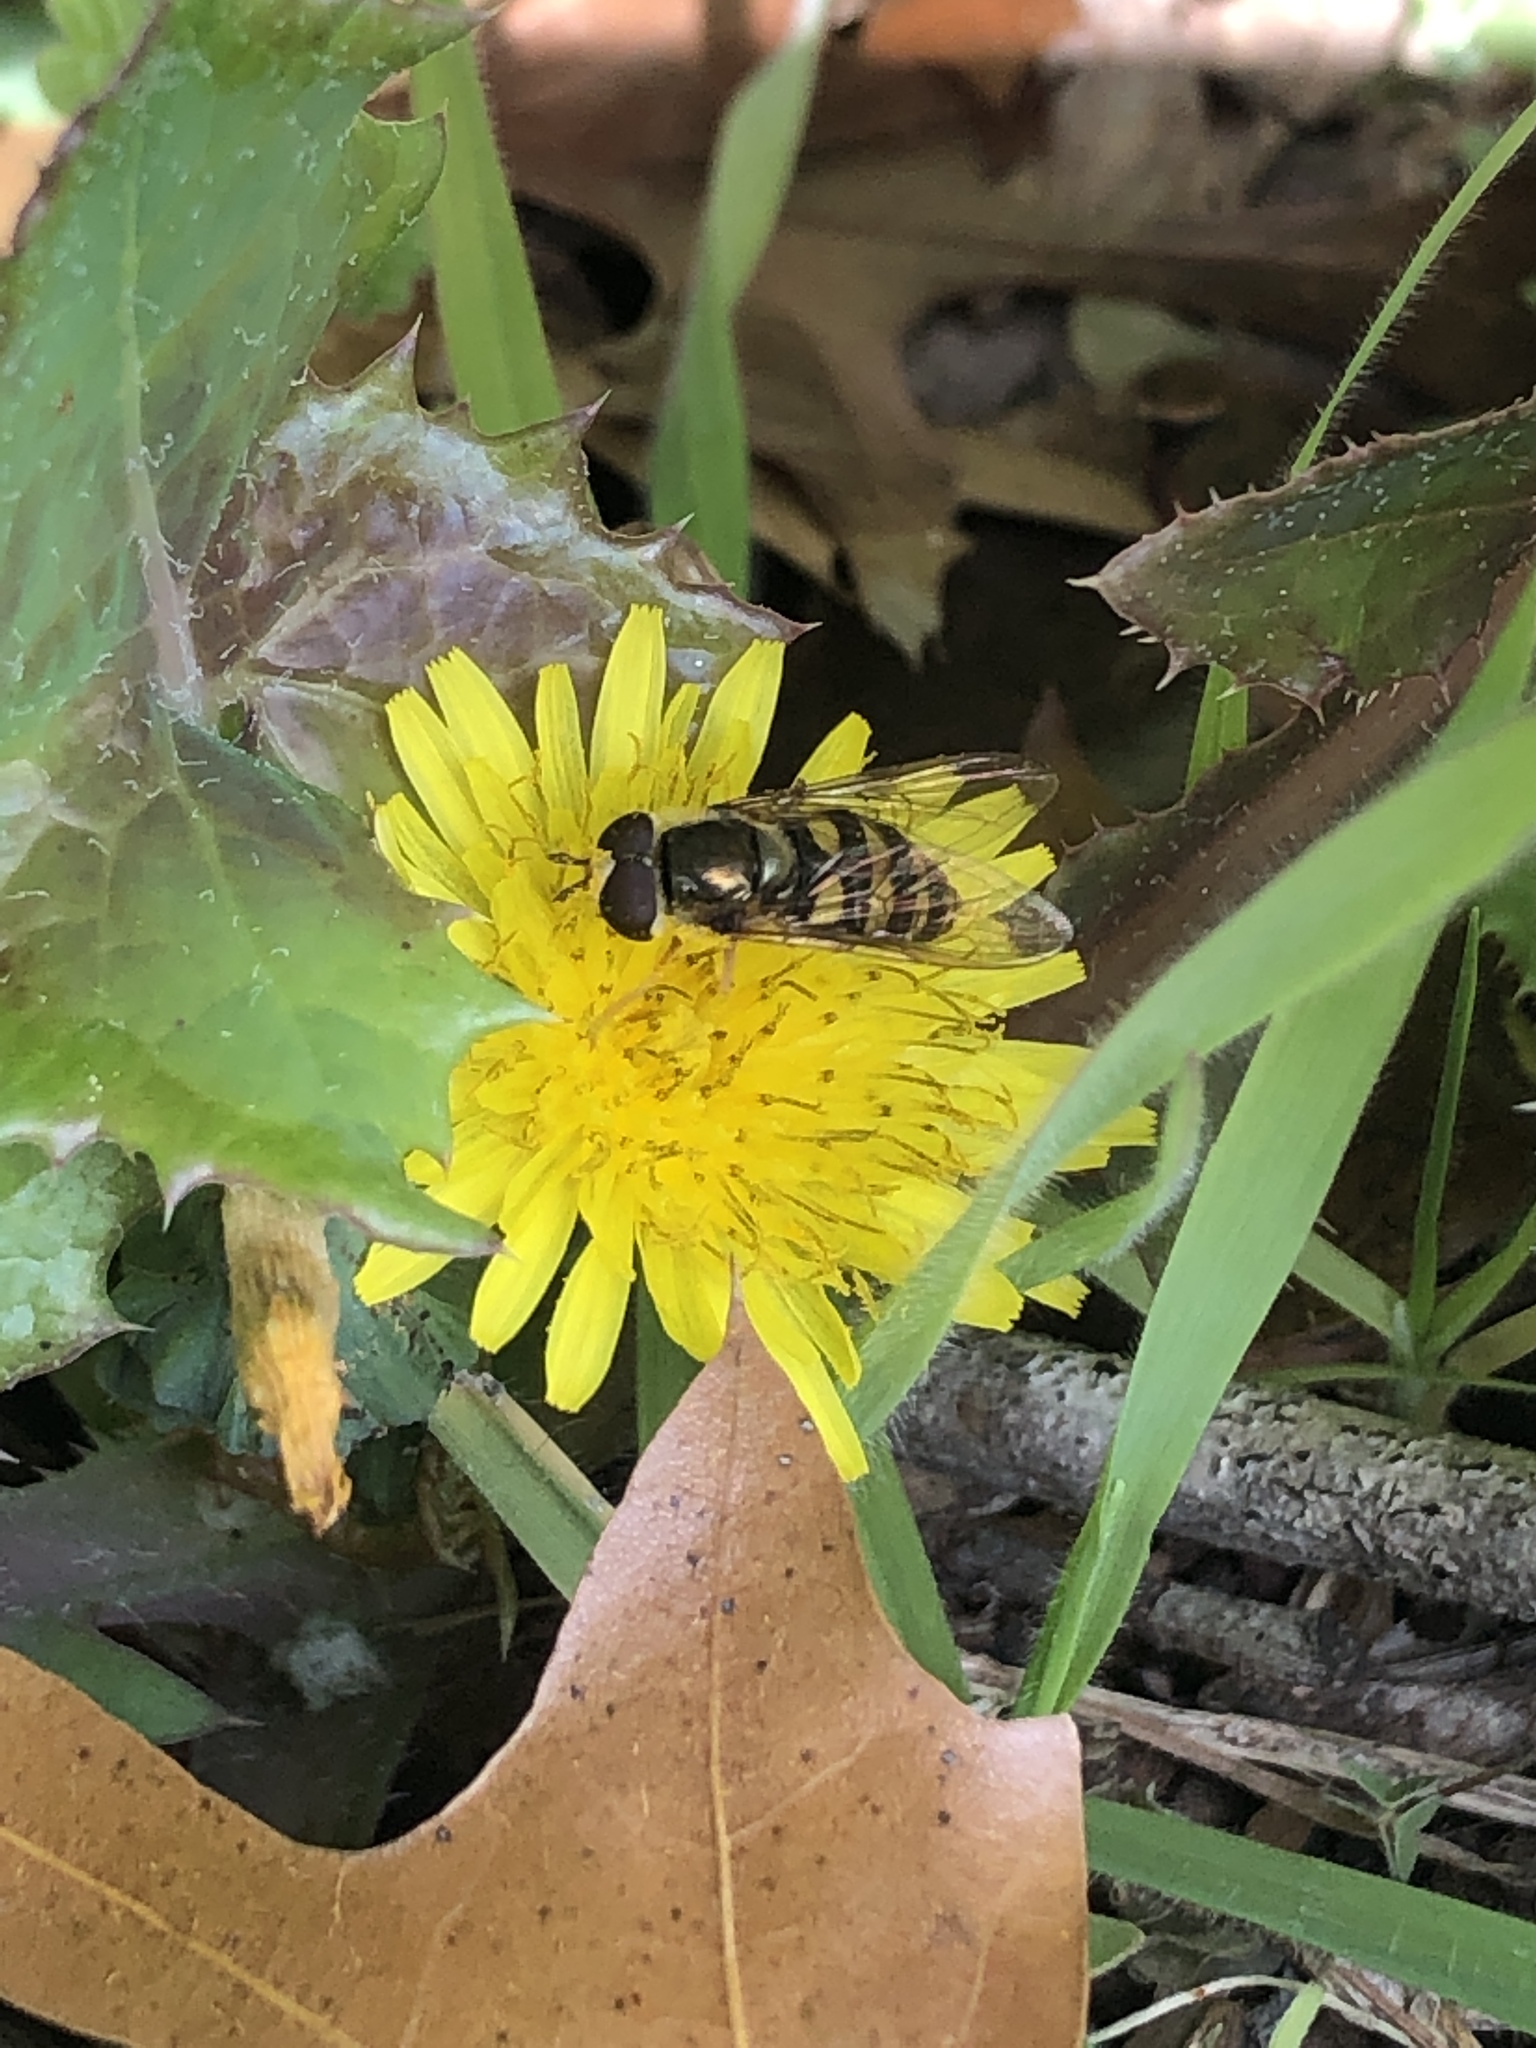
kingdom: Animalia
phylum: Arthropoda
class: Insecta
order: Diptera
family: Syrphidae
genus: Eupeodes
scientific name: Eupeodes
